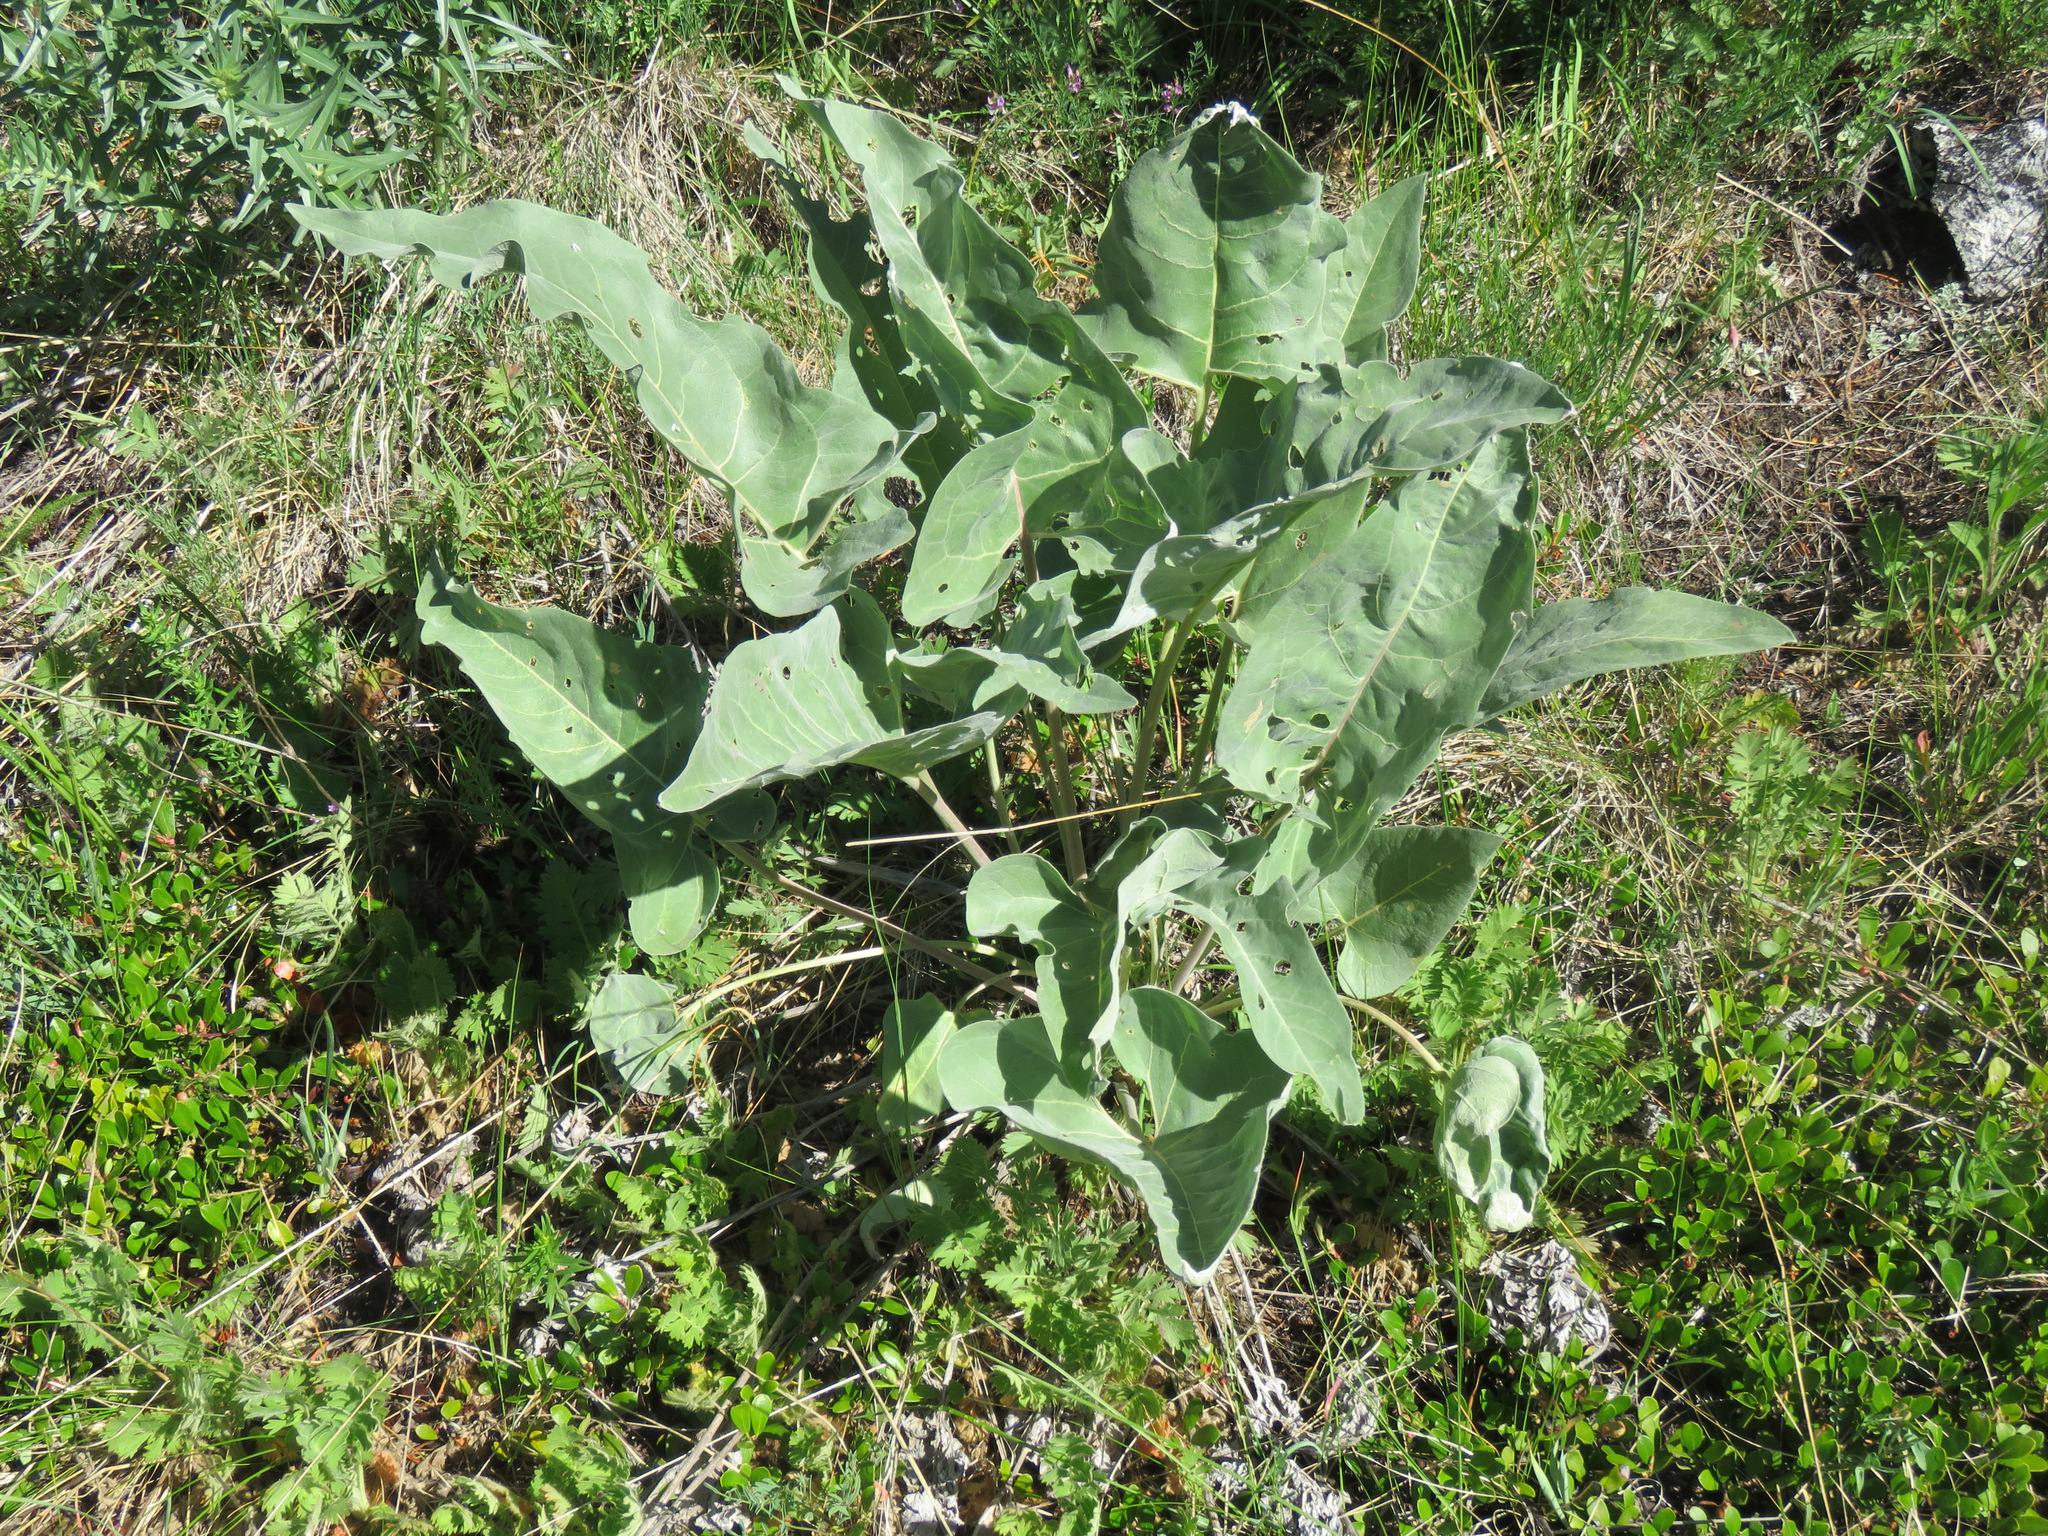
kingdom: Plantae
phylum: Tracheophyta
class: Magnoliopsida
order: Asterales
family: Asteraceae
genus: Wyethia
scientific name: Wyethia sagittata
